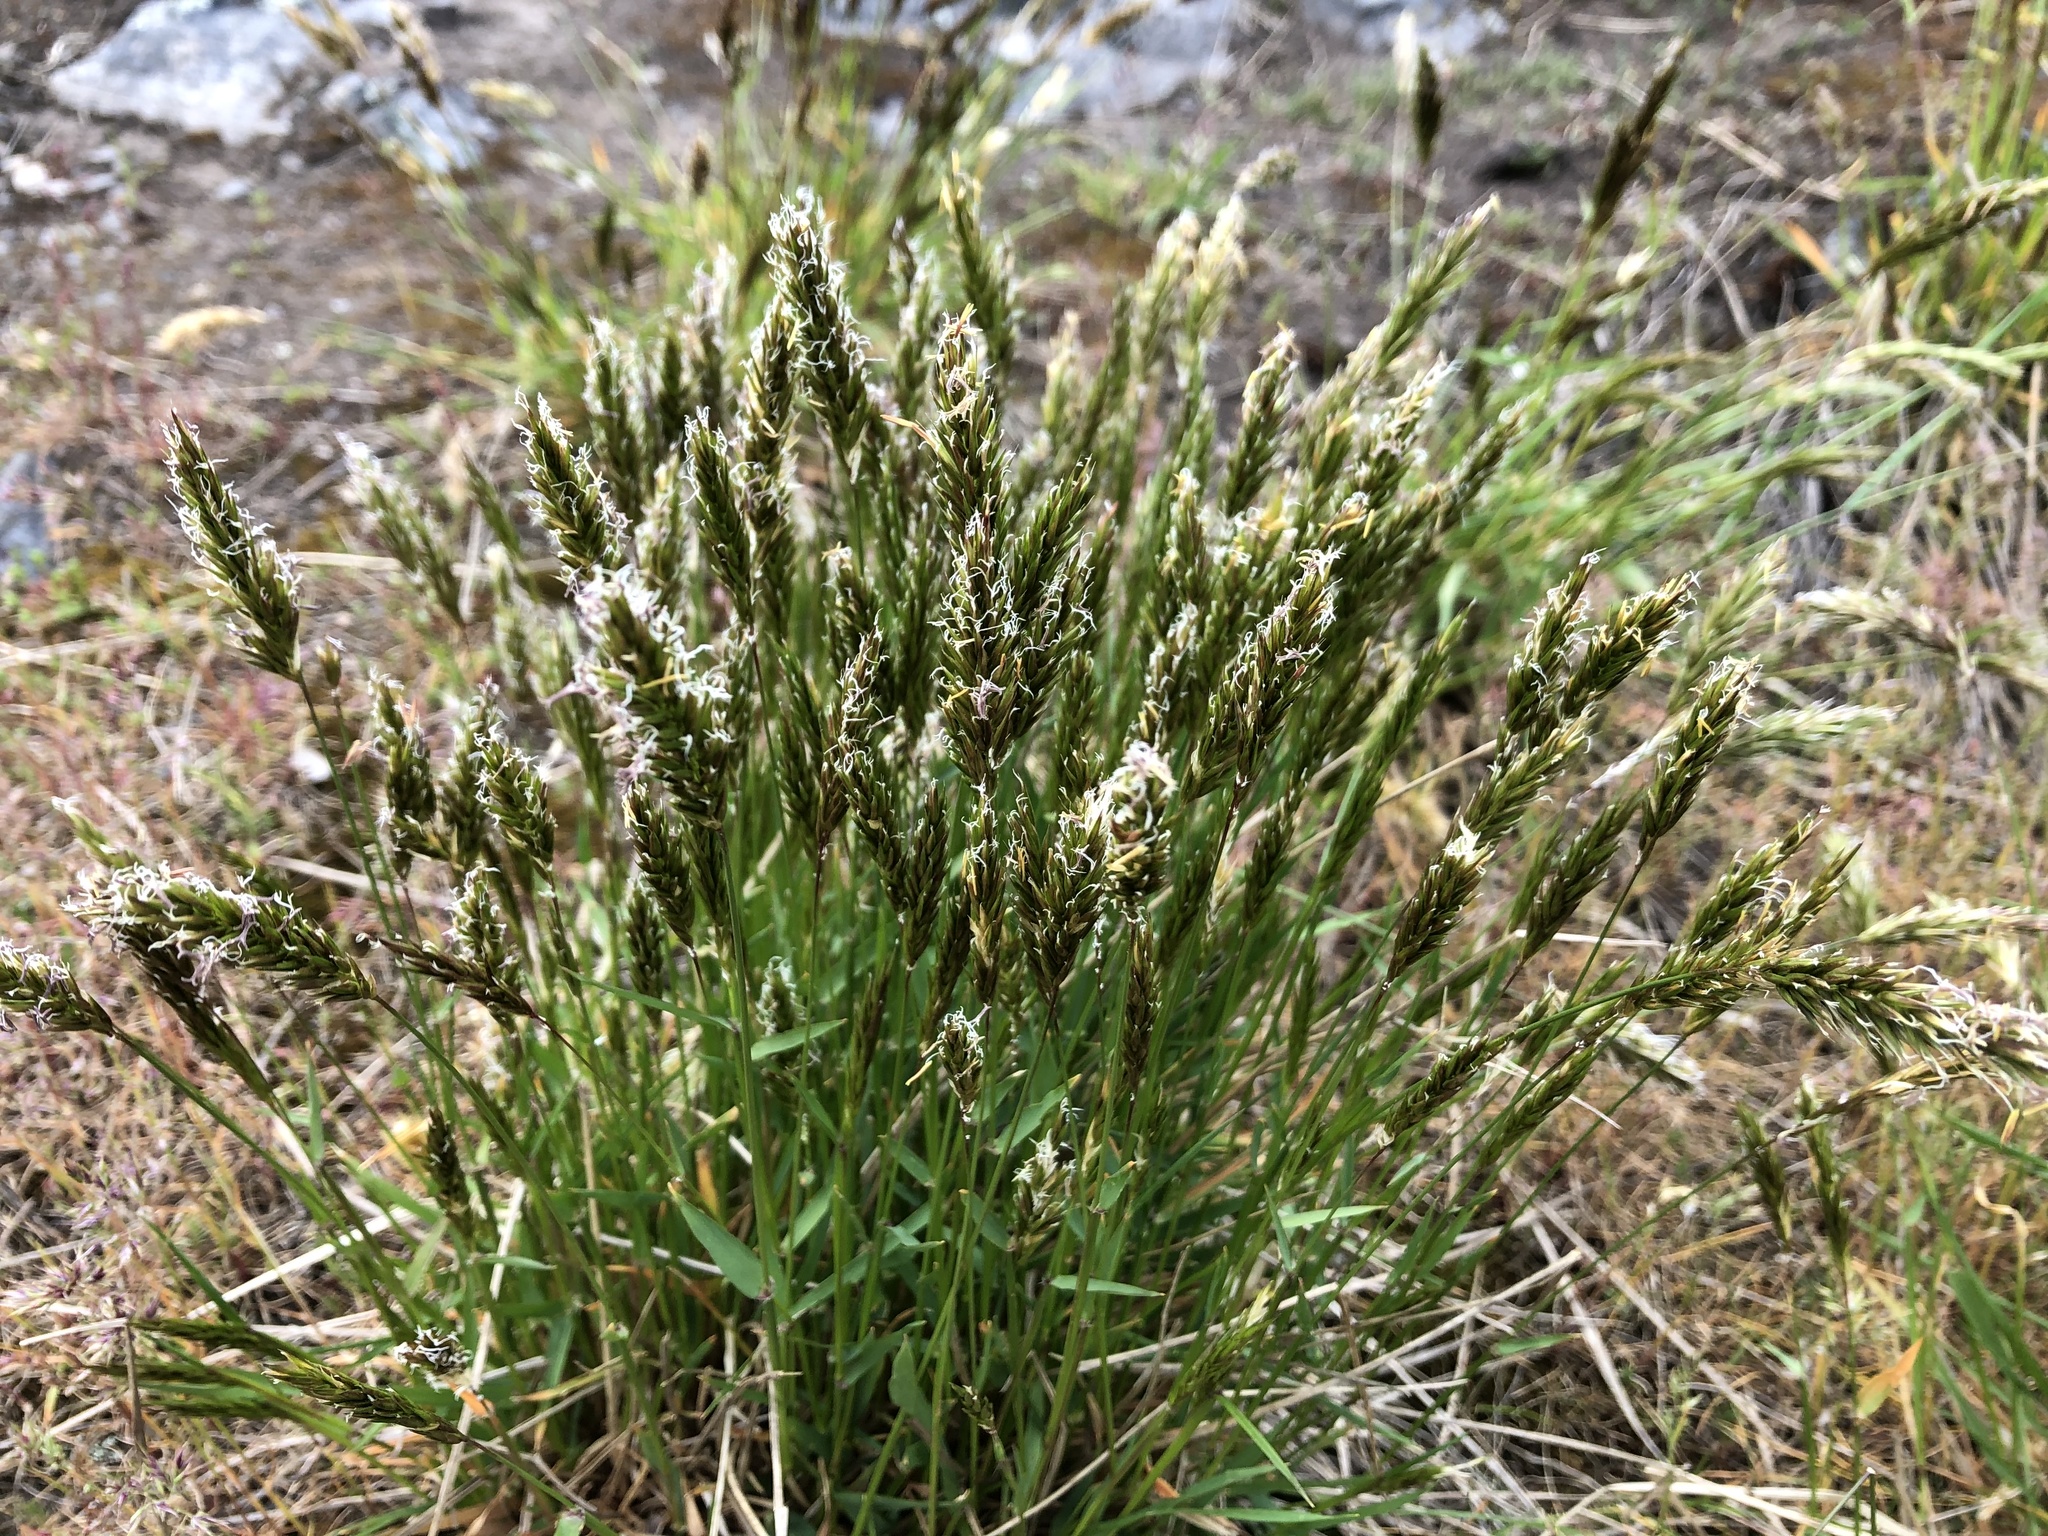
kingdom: Plantae
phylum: Tracheophyta
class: Liliopsida
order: Poales
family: Poaceae
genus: Anthoxanthum
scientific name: Anthoxanthum odoratum
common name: Sweet vernalgrass
